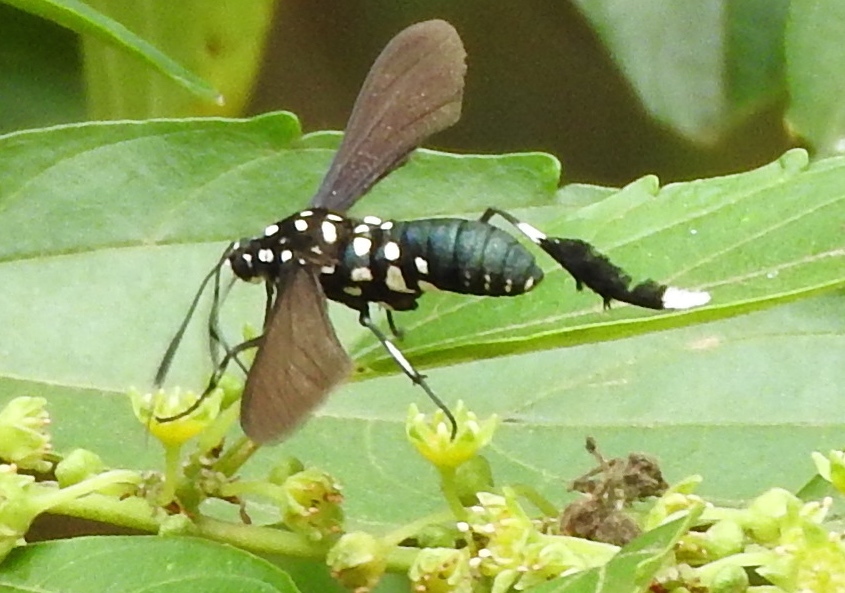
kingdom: Animalia
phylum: Arthropoda
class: Insecta
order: Lepidoptera
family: Erebidae
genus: Horama
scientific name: Horama plumipes
